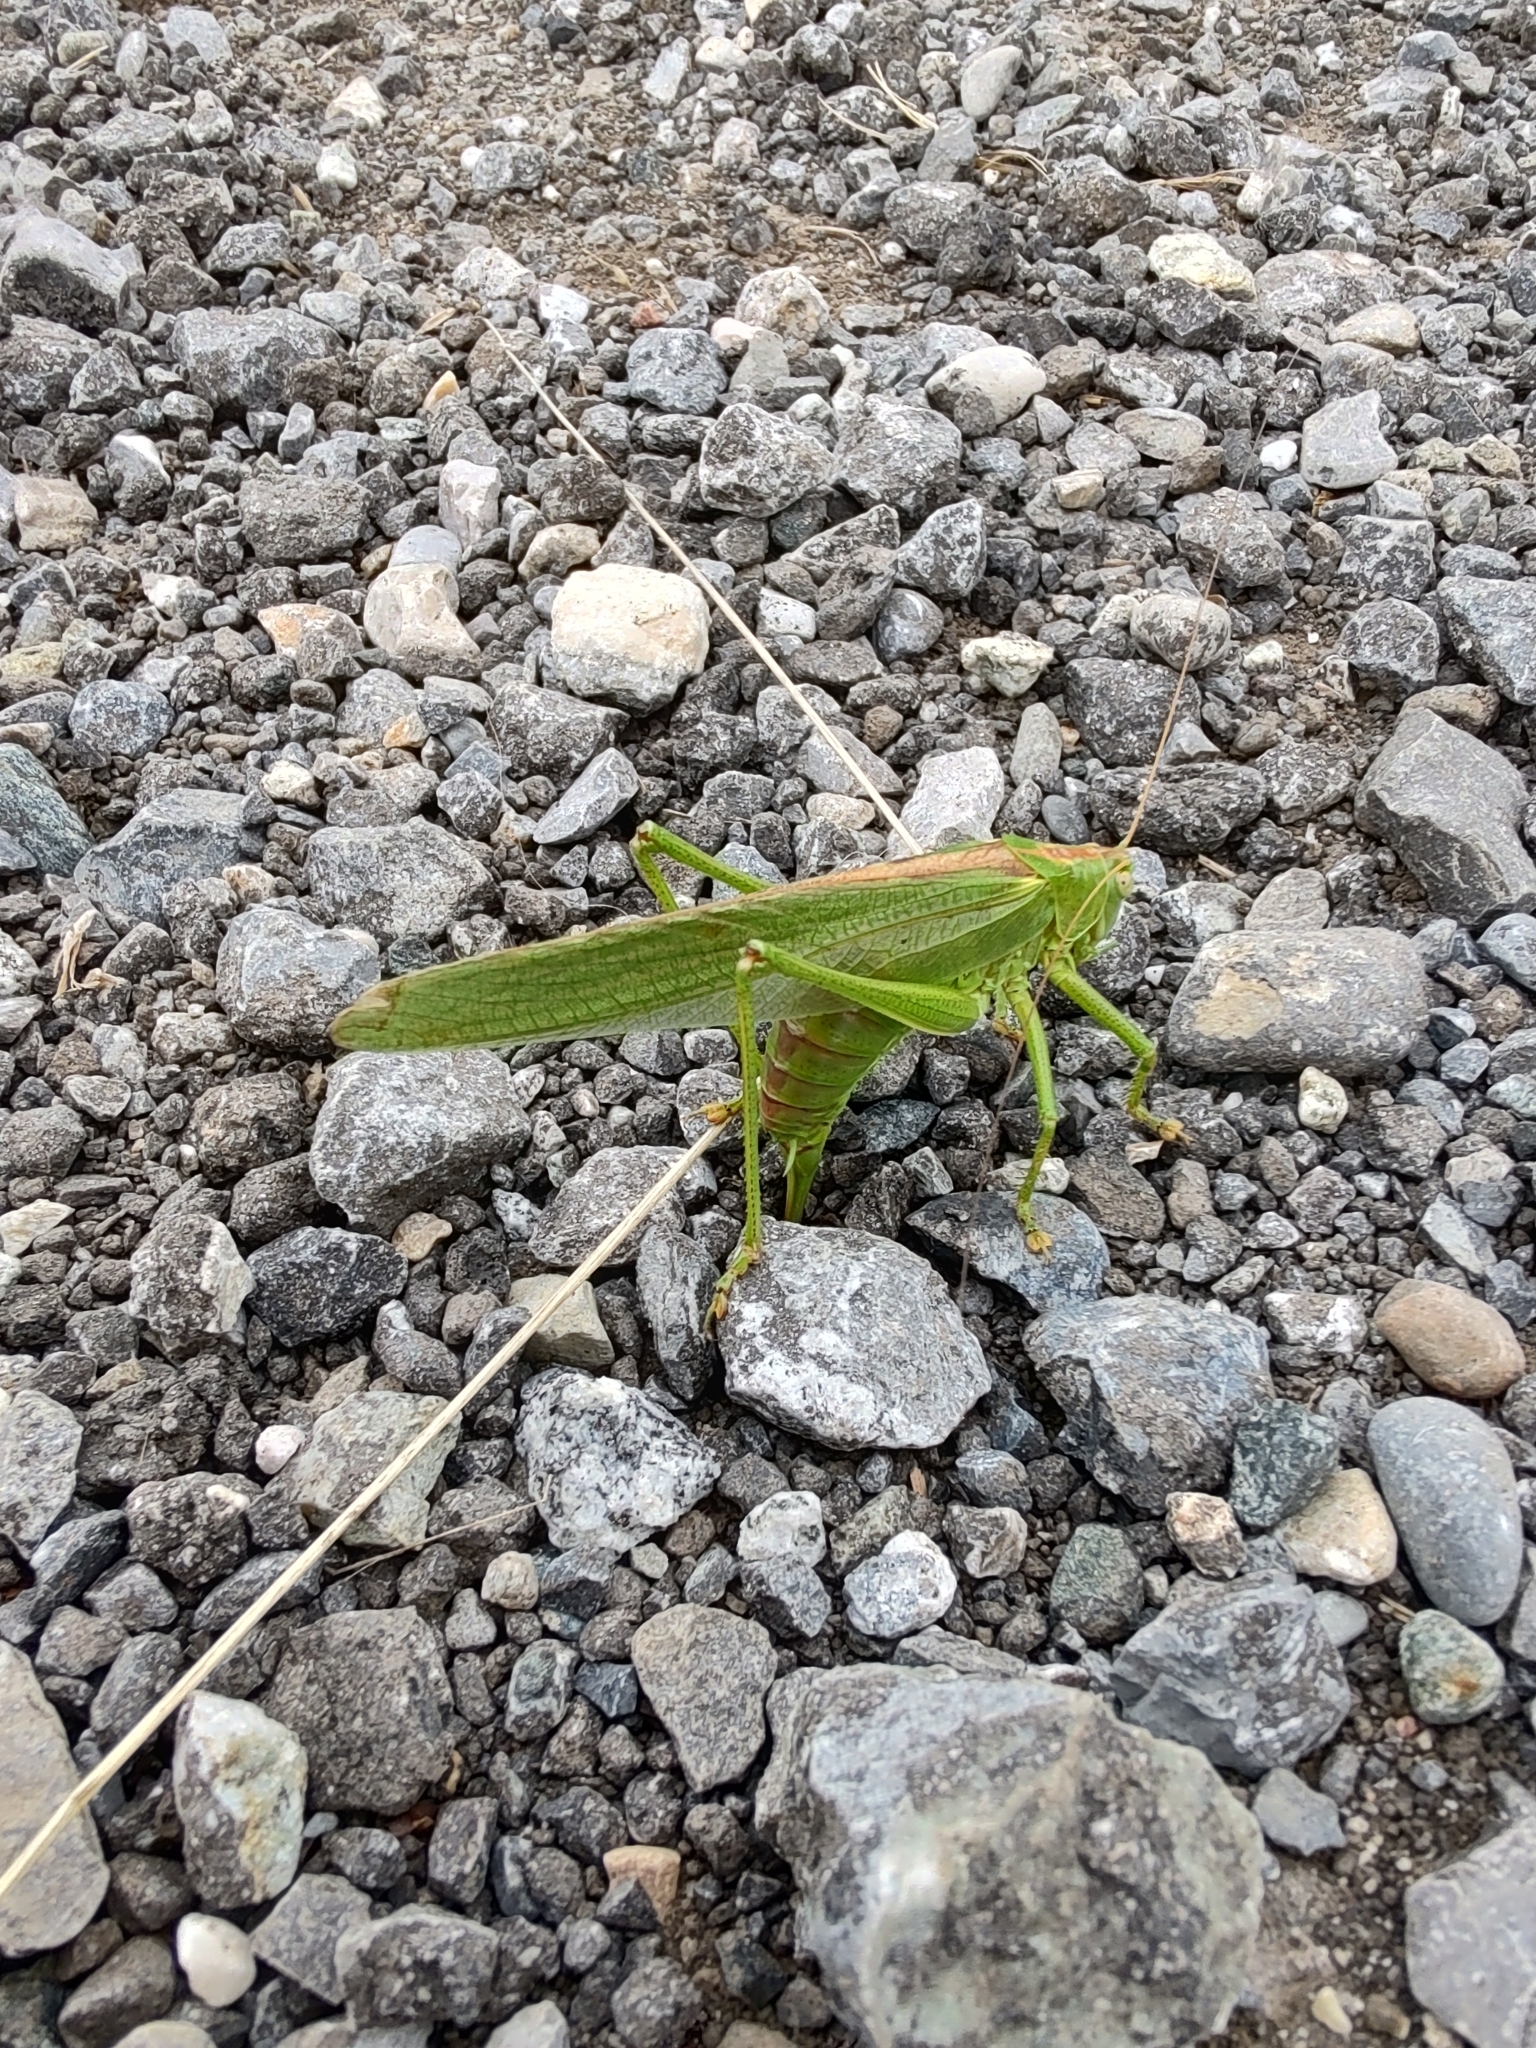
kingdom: Animalia
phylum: Arthropoda
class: Insecta
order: Orthoptera
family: Tettigoniidae
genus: Tettigonia
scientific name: Tettigonia viridissima
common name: Great green bush-cricket
